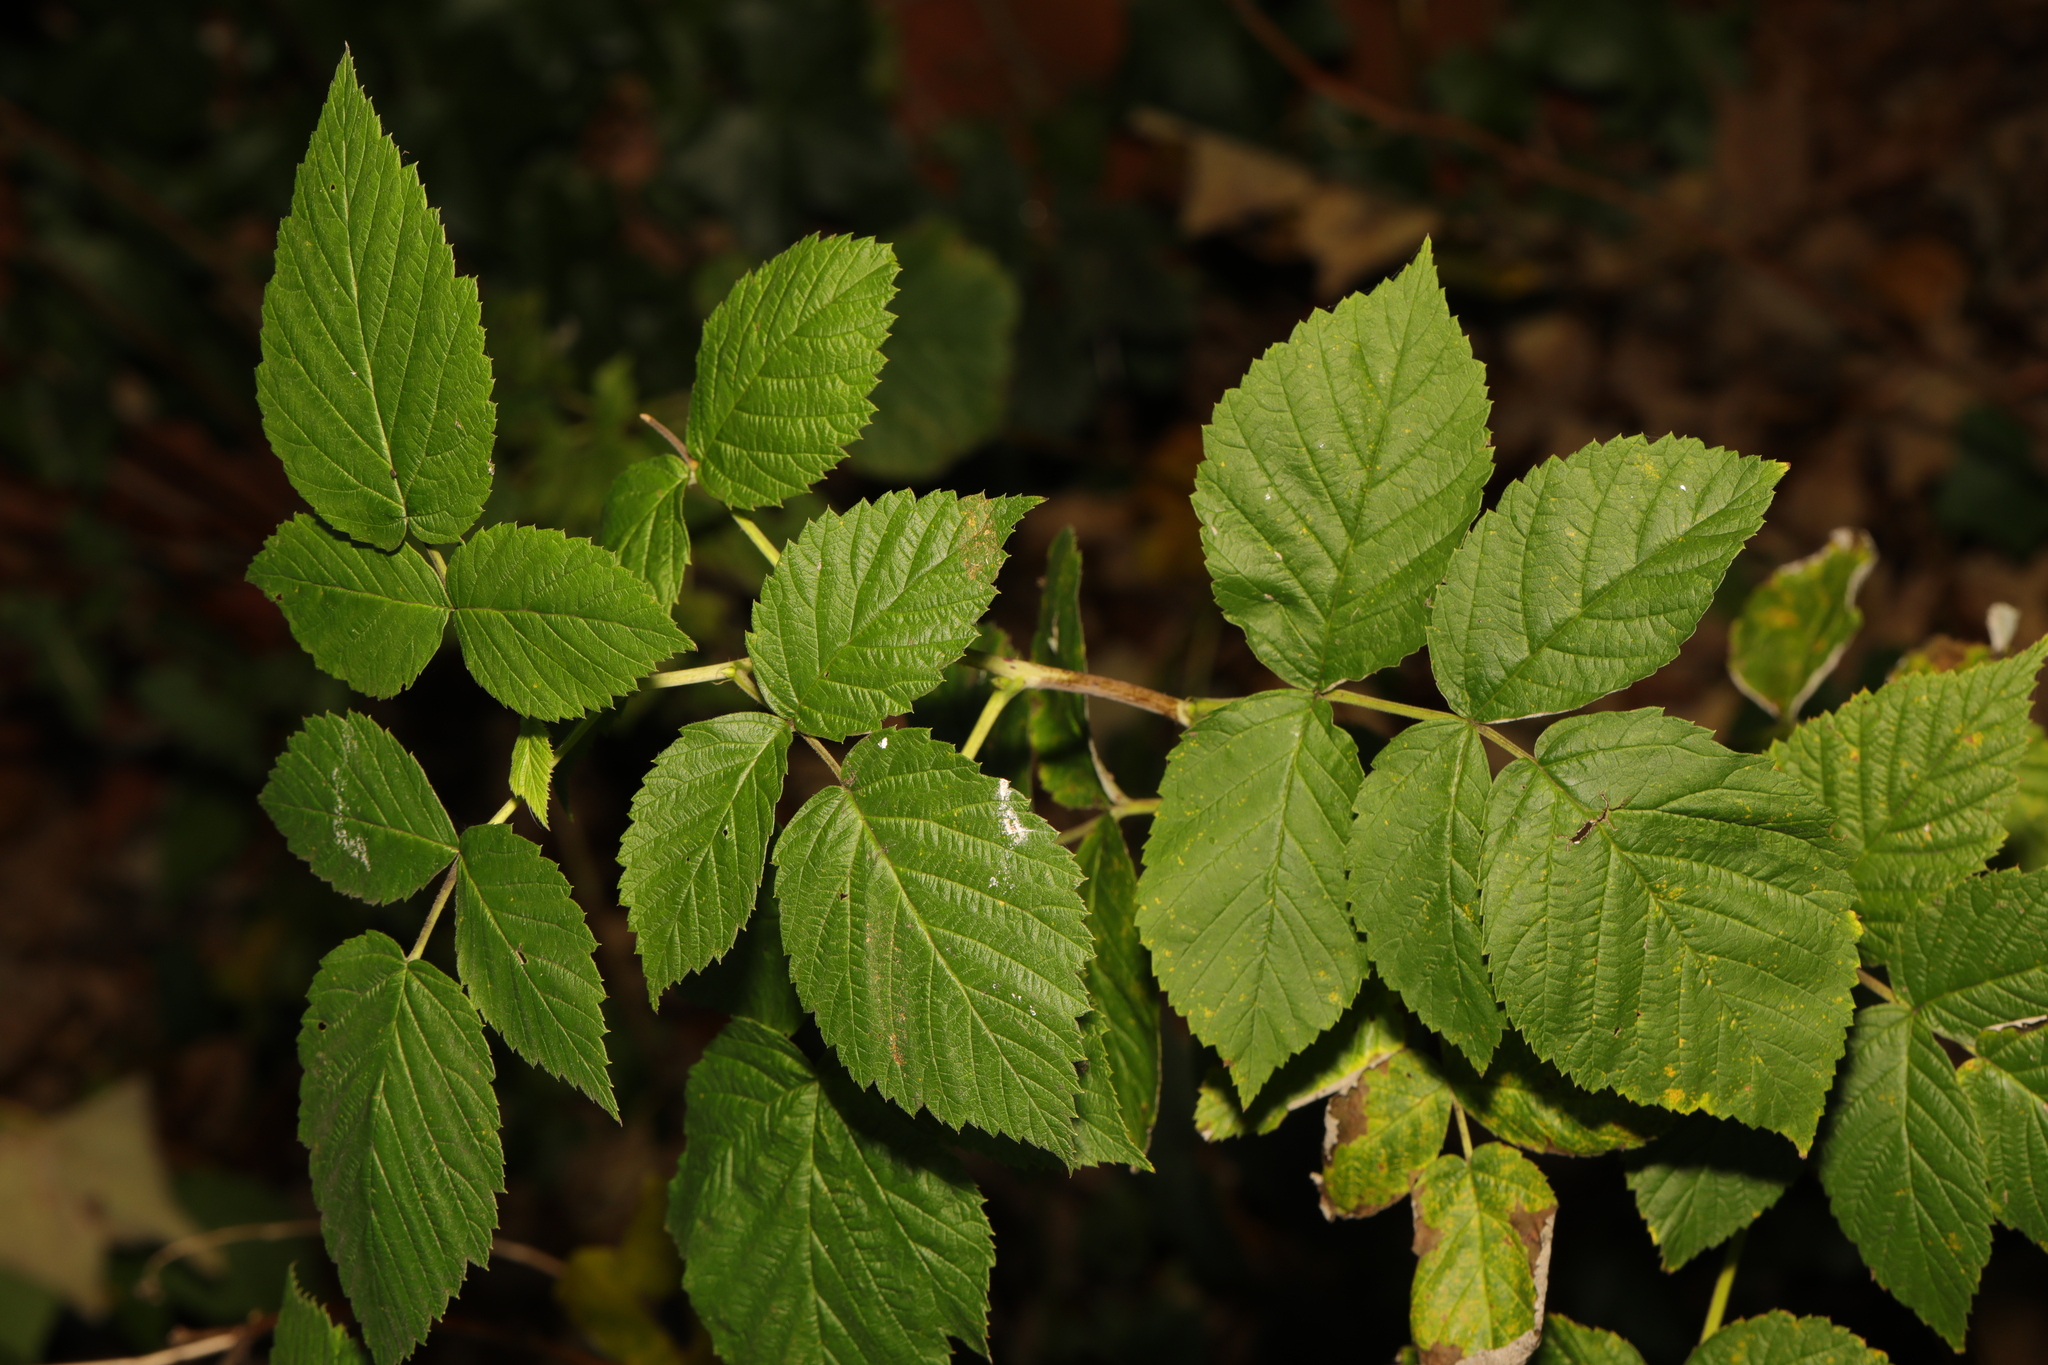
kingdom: Plantae
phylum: Tracheophyta
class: Magnoliopsida
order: Rosales
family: Rosaceae
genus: Rubus
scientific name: Rubus idaeus
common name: Raspberry
